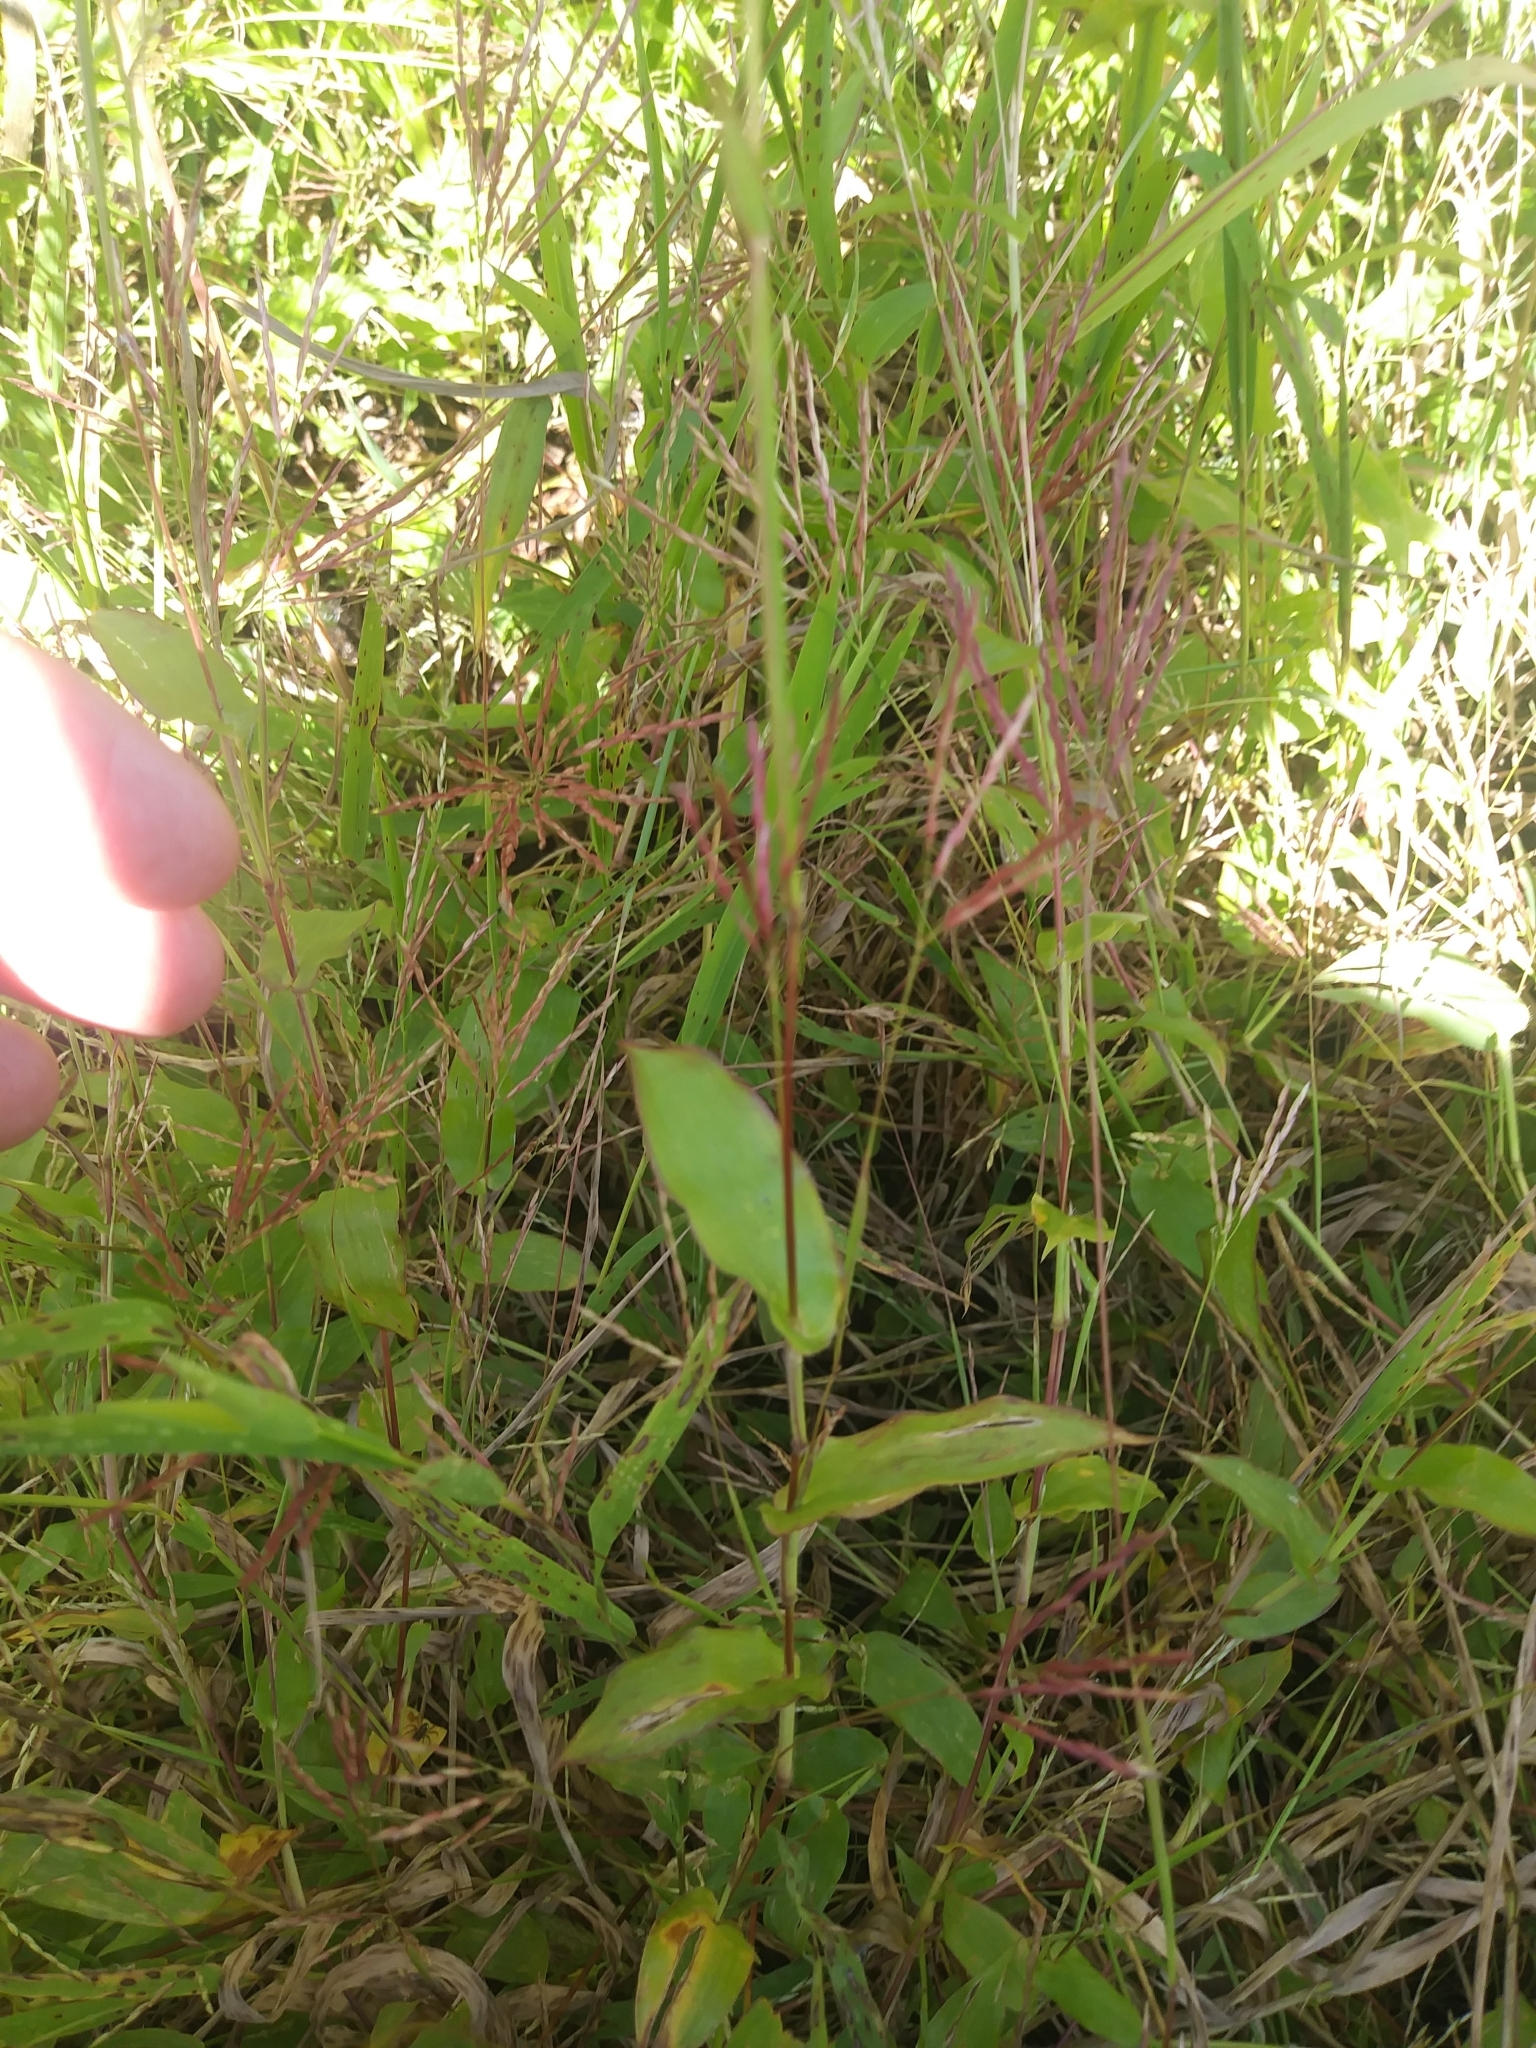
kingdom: Plantae
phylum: Tracheophyta
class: Liliopsida
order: Poales
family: Poaceae
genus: Arthraxon
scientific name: Arthraxon hispidus
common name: Small carpgrass
